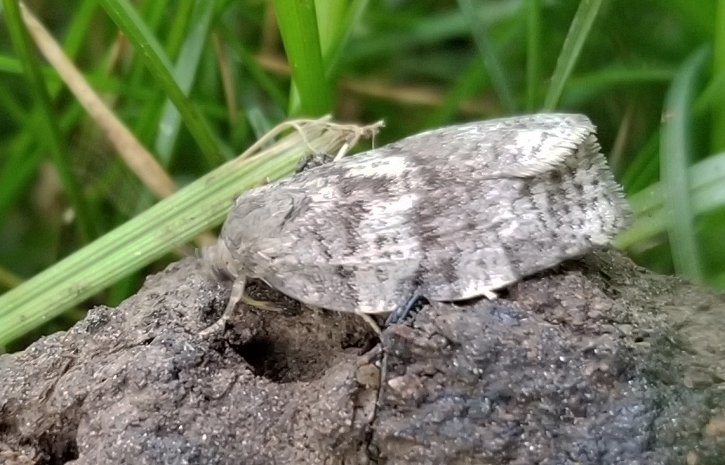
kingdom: Animalia
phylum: Arthropoda
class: Insecta
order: Lepidoptera
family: Tortricidae
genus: Choristoneura
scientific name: Choristoneura conflictana
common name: Large aspen tortrix
